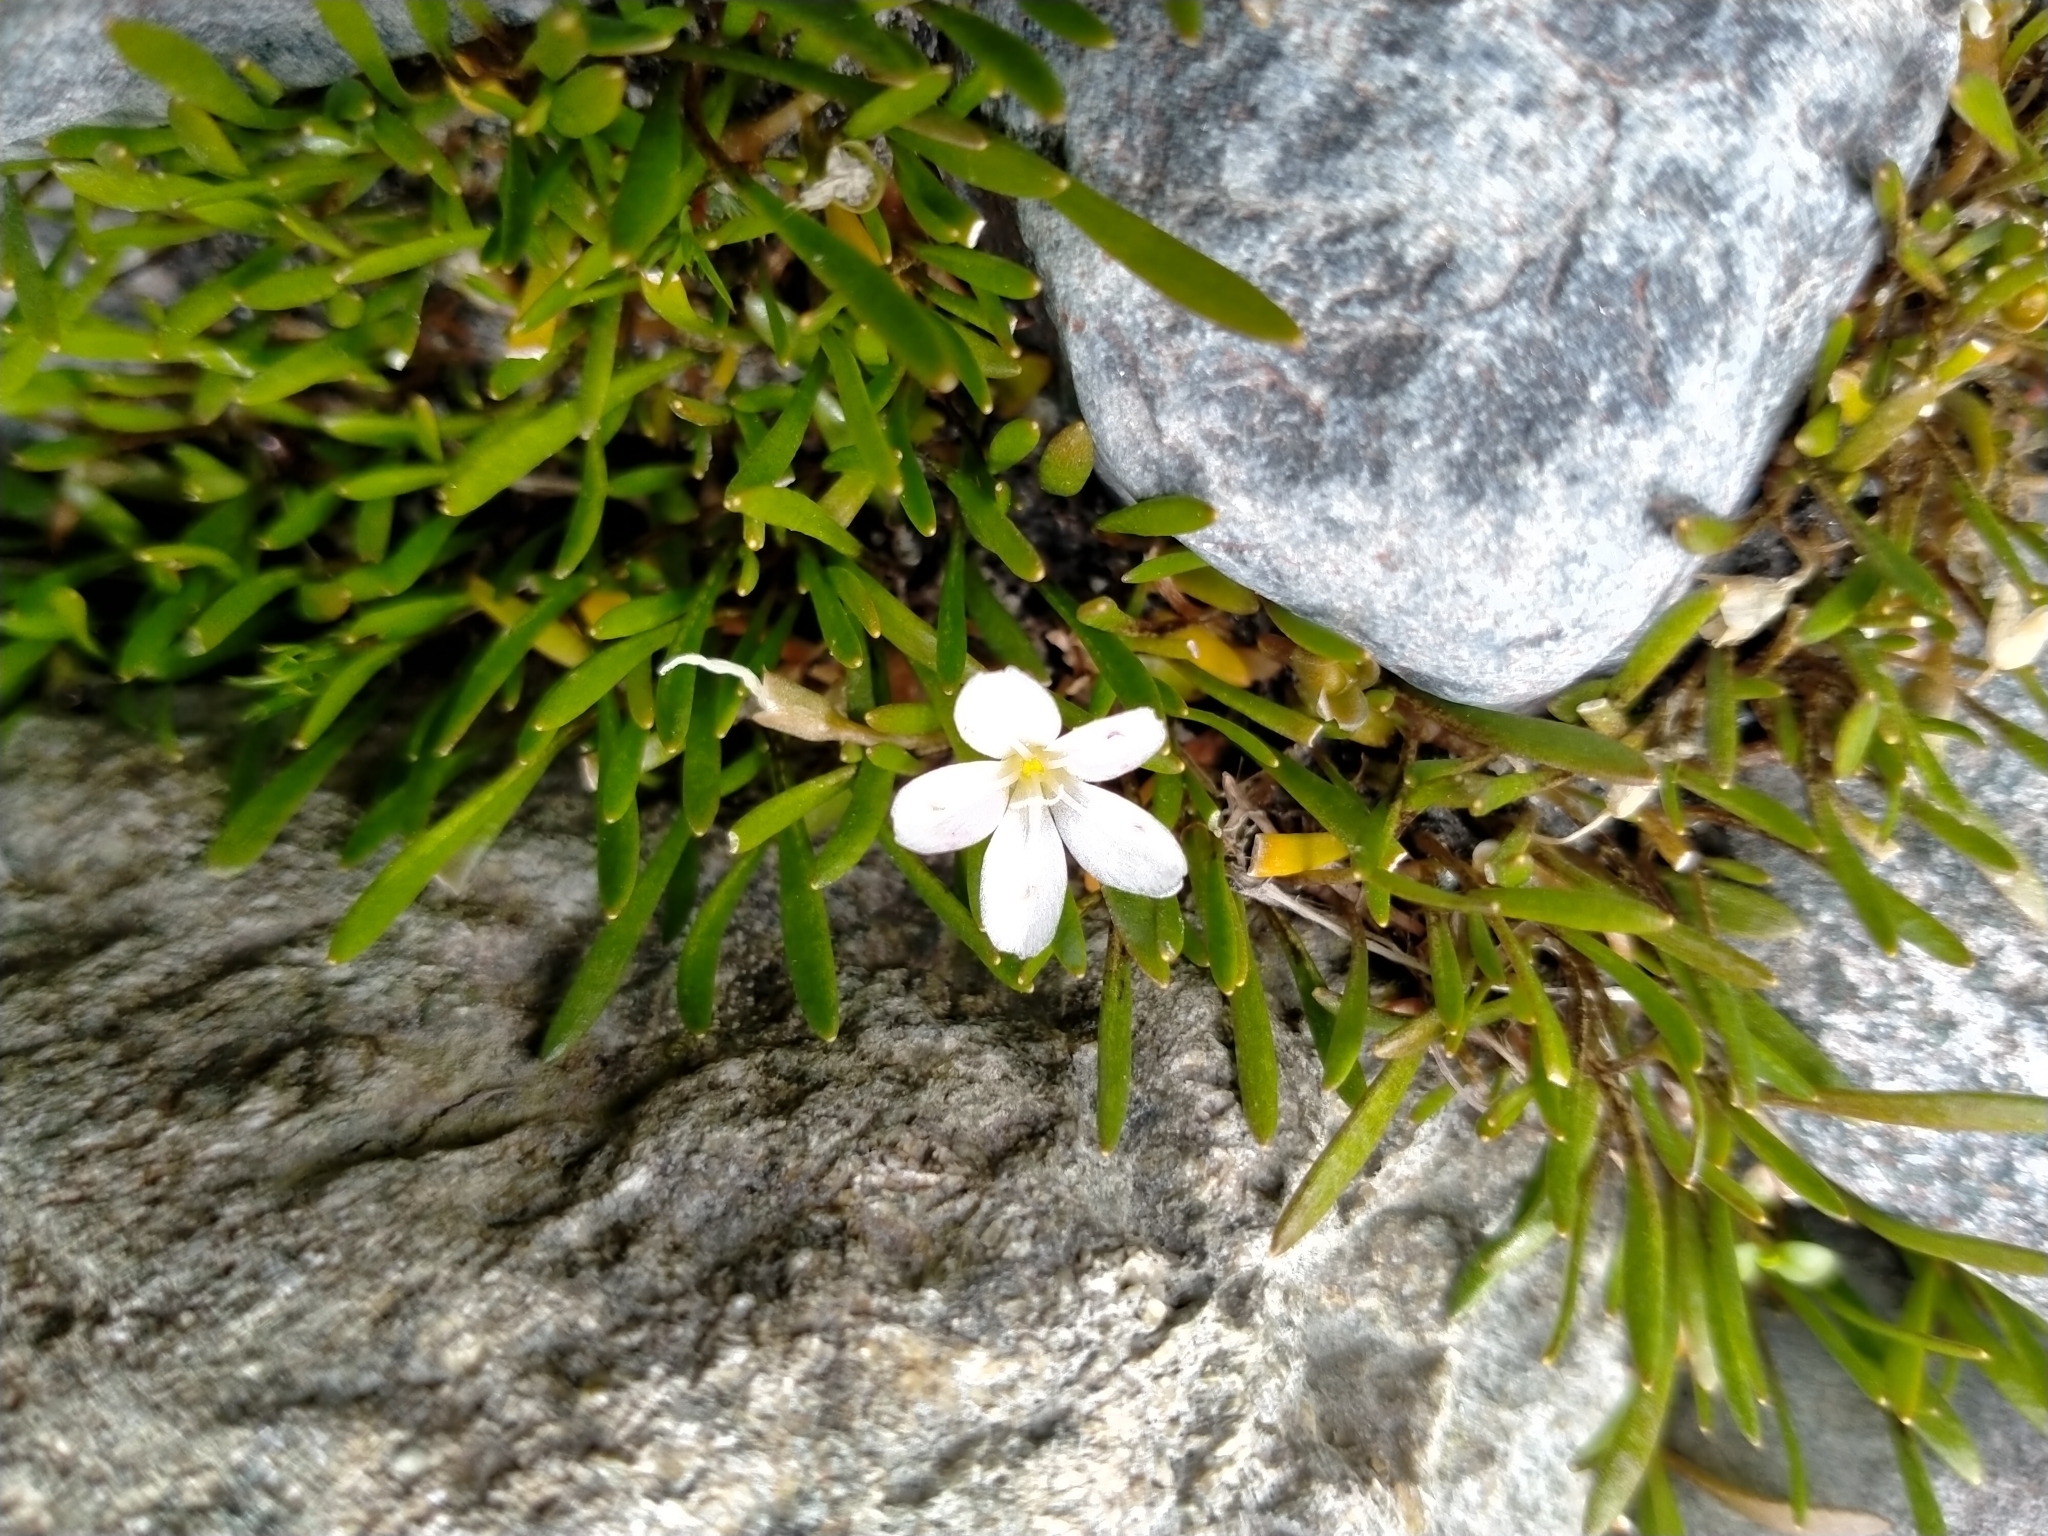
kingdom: Plantae
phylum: Tracheophyta
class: Magnoliopsida
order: Caryophyllales
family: Montiaceae
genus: Montia
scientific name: Montia sessiliflora
